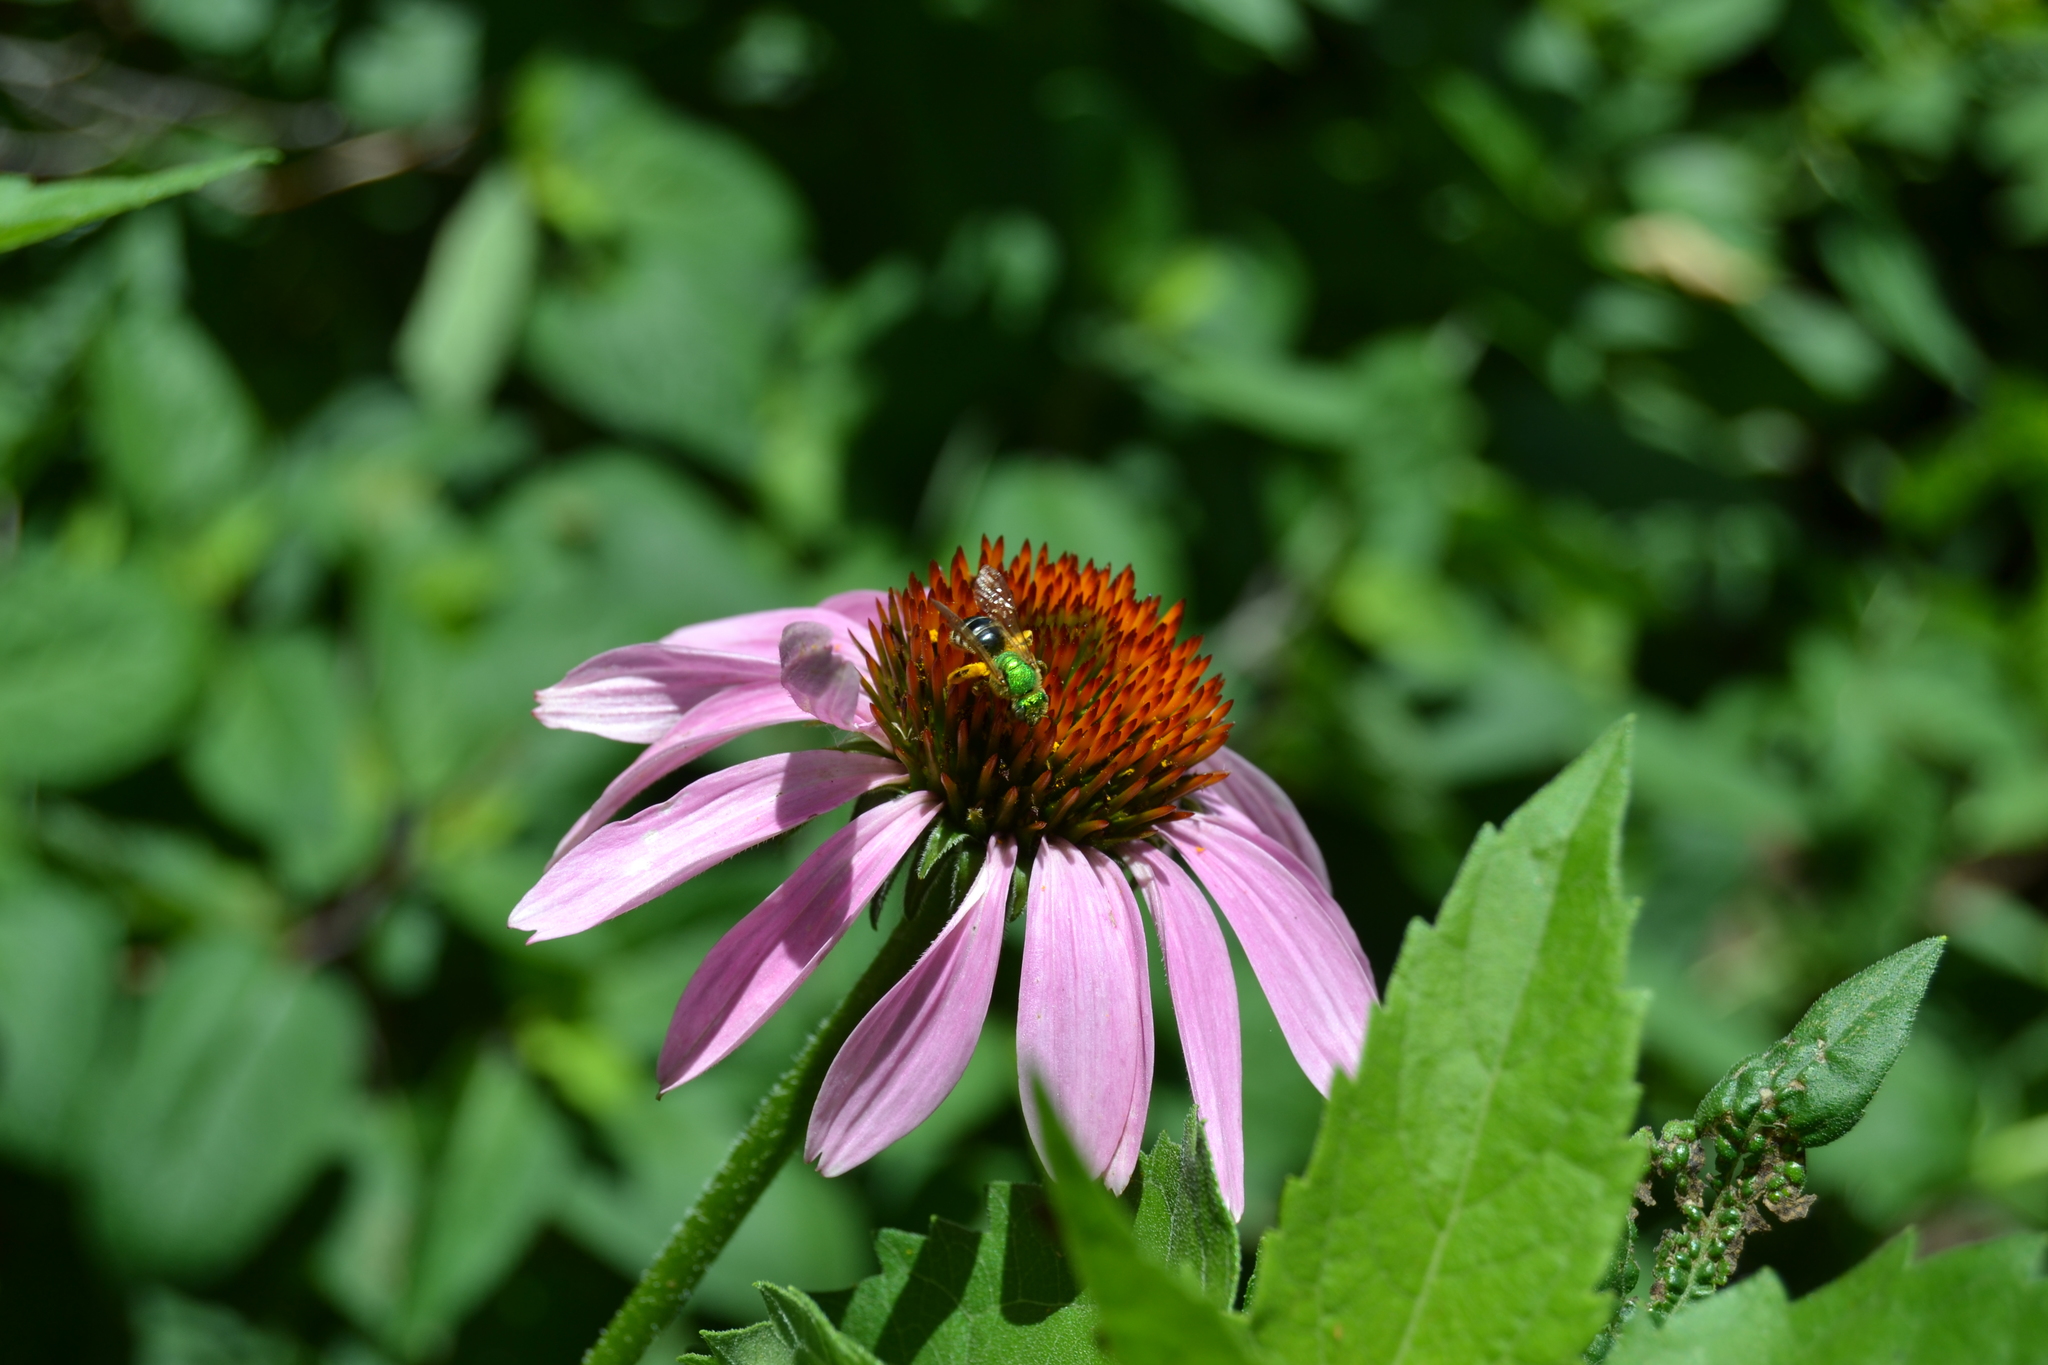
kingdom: Animalia
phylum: Arthropoda
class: Insecta
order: Hymenoptera
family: Halictidae
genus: Agapostemon
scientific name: Agapostemon virescens
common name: Bicolored striped sweat bee
